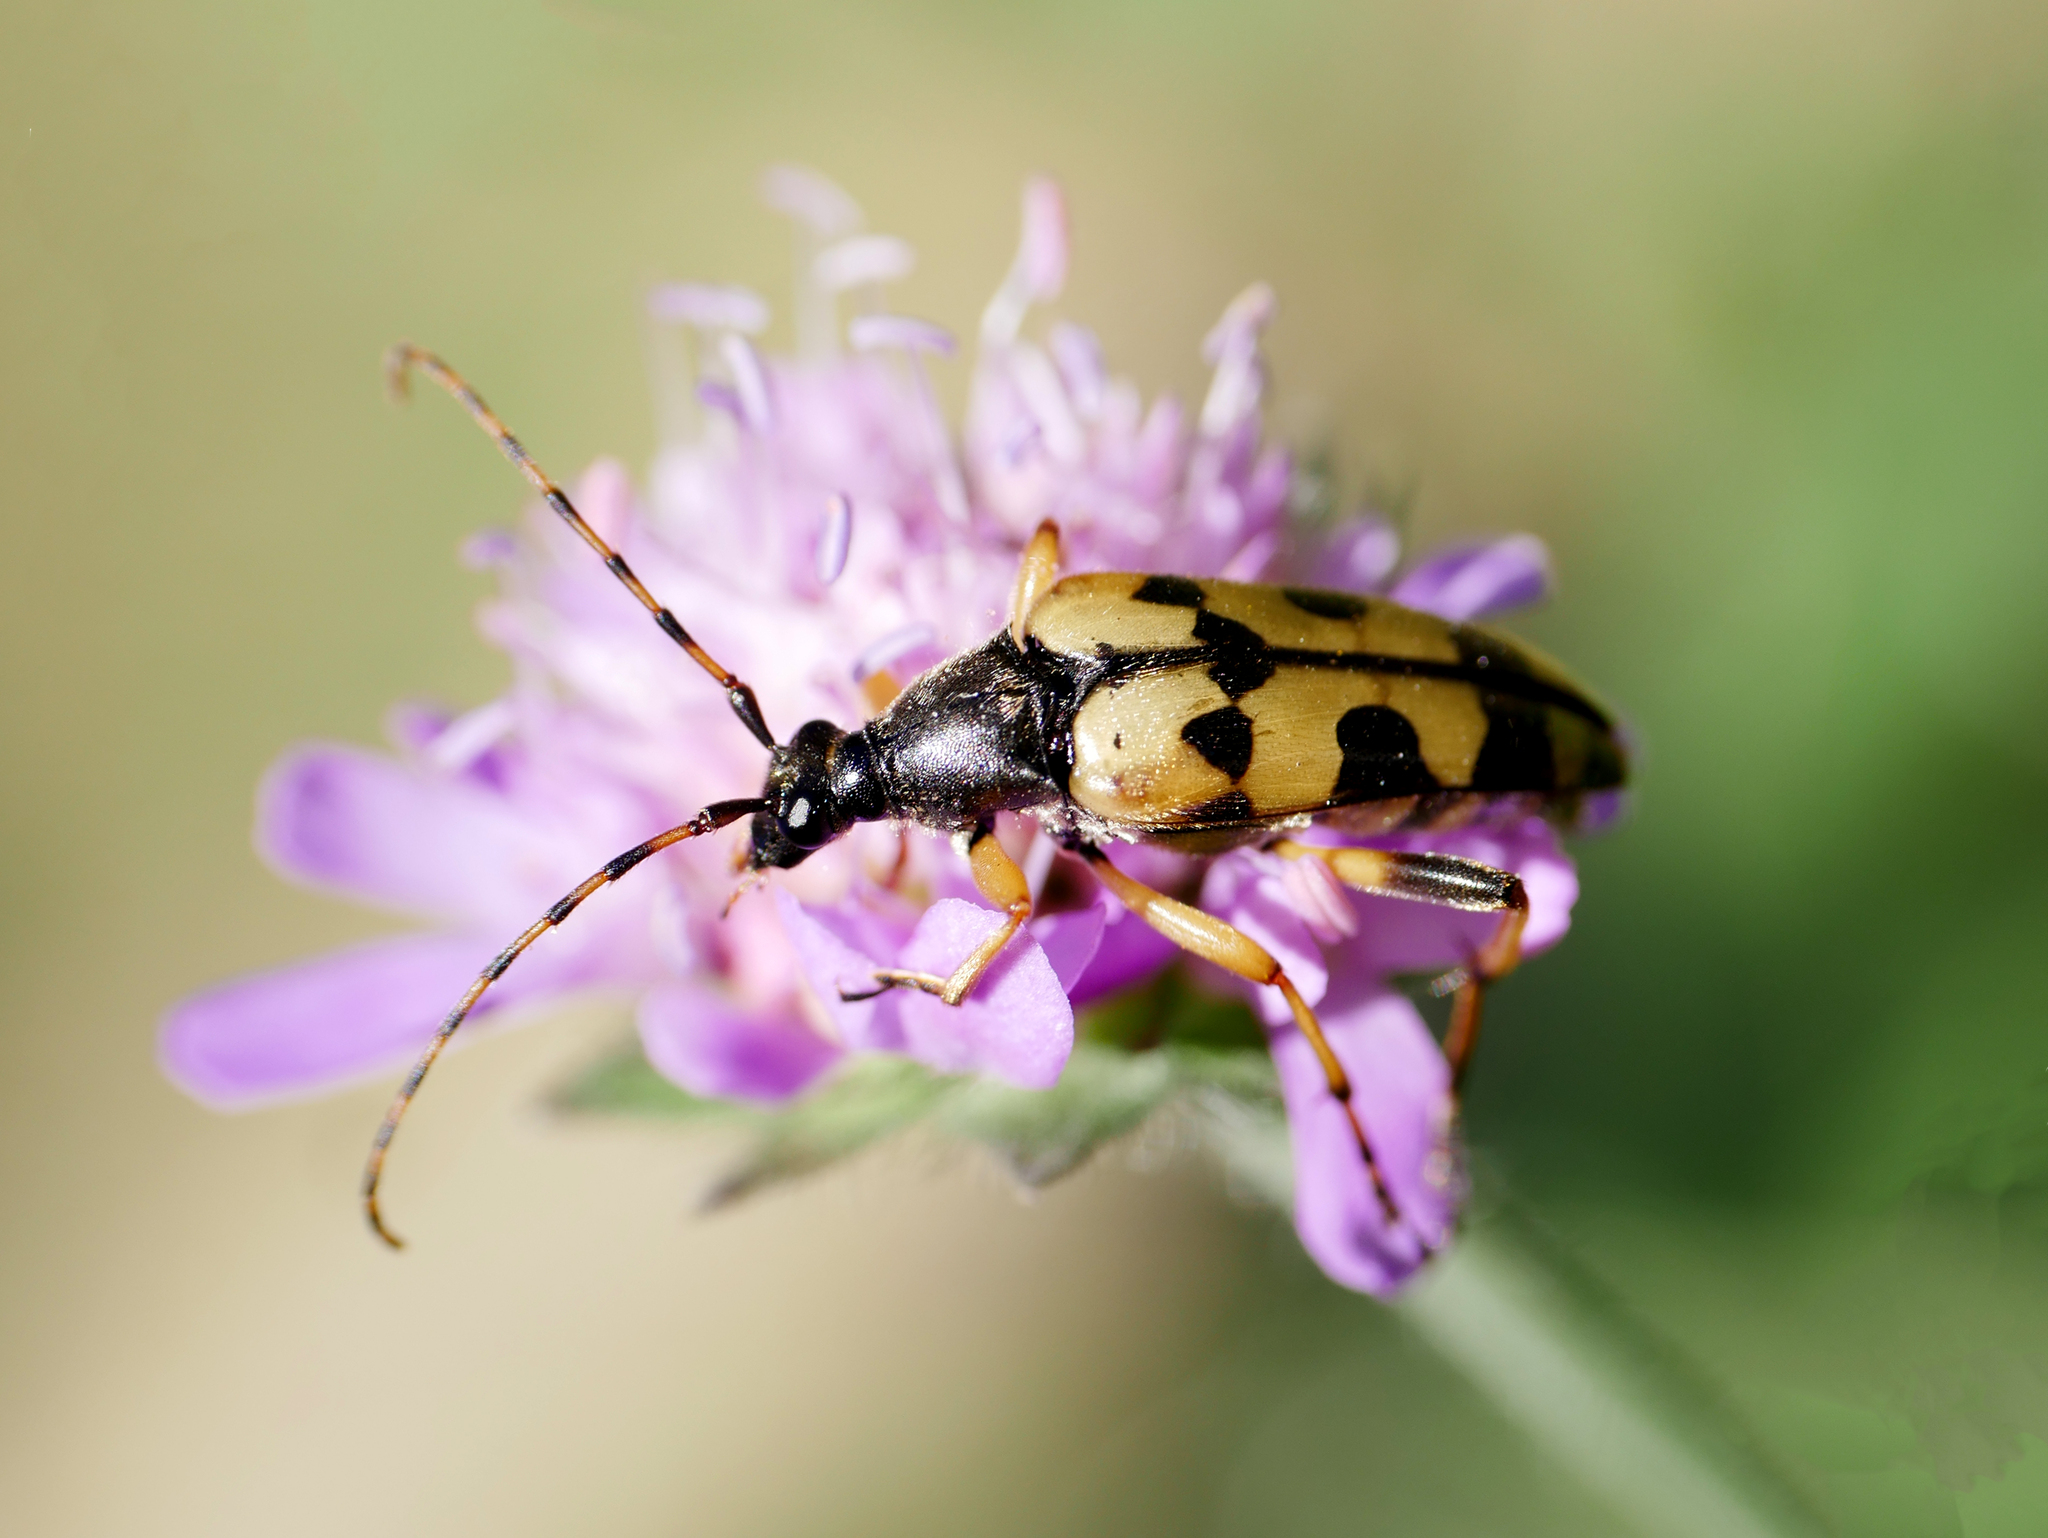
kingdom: Animalia
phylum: Arthropoda
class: Insecta
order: Coleoptera
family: Cerambycidae
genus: Rutpela
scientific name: Rutpela maculata
